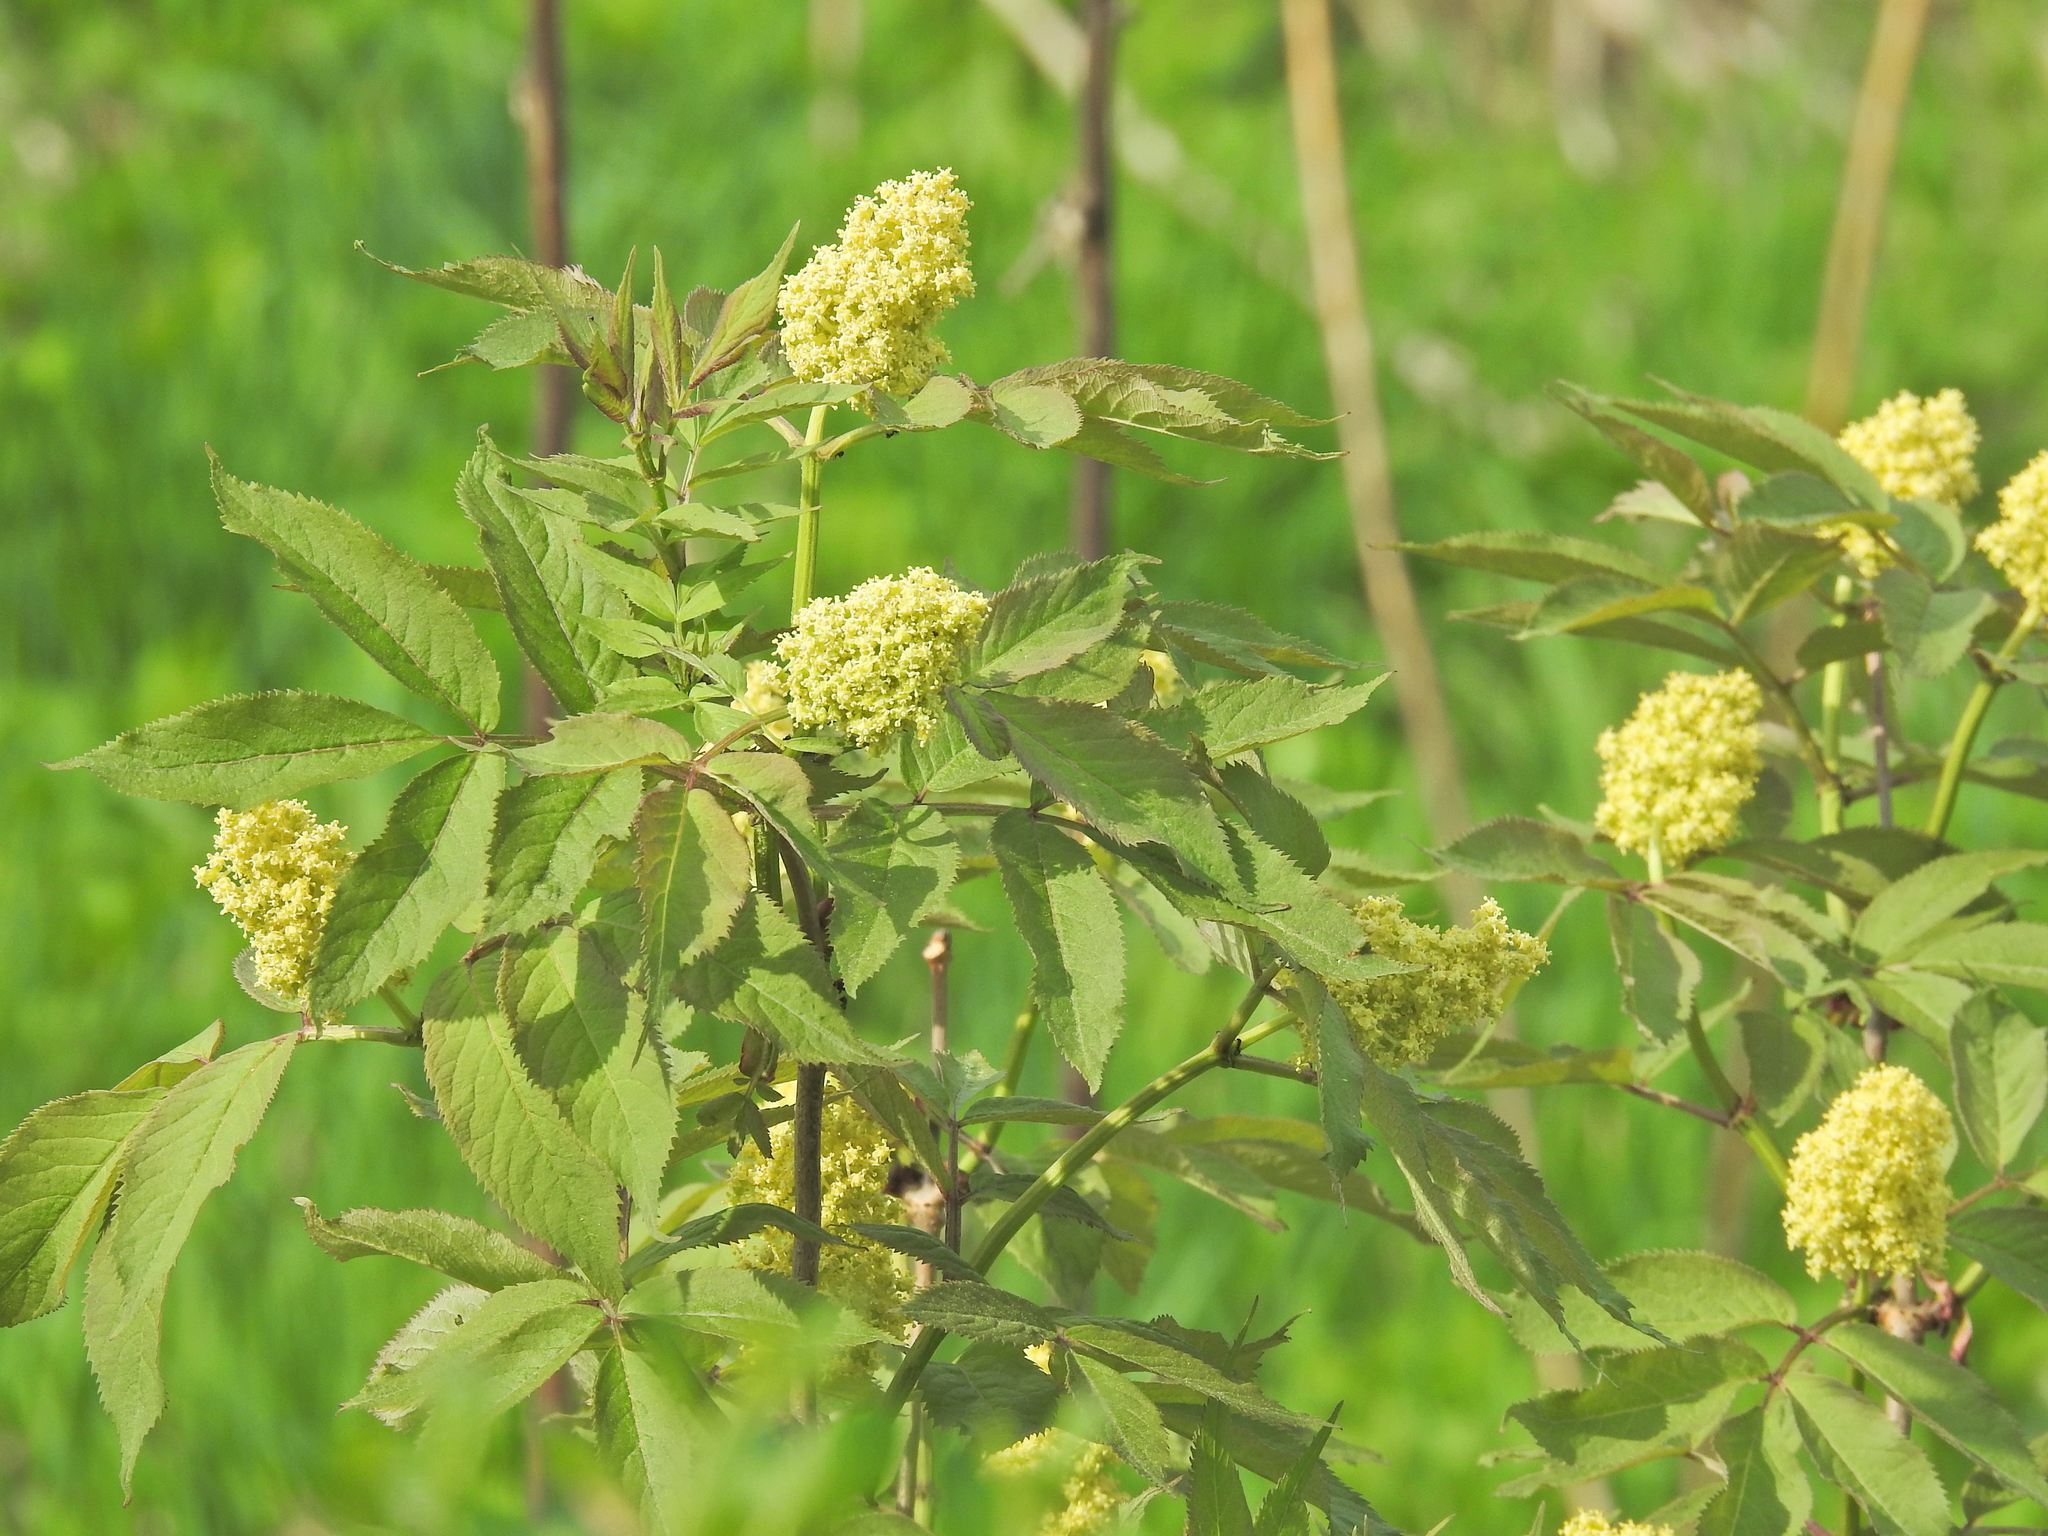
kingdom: Plantae
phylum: Tracheophyta
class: Magnoliopsida
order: Dipsacales
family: Viburnaceae
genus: Sambucus
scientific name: Sambucus racemosa
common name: Red-berried elder
